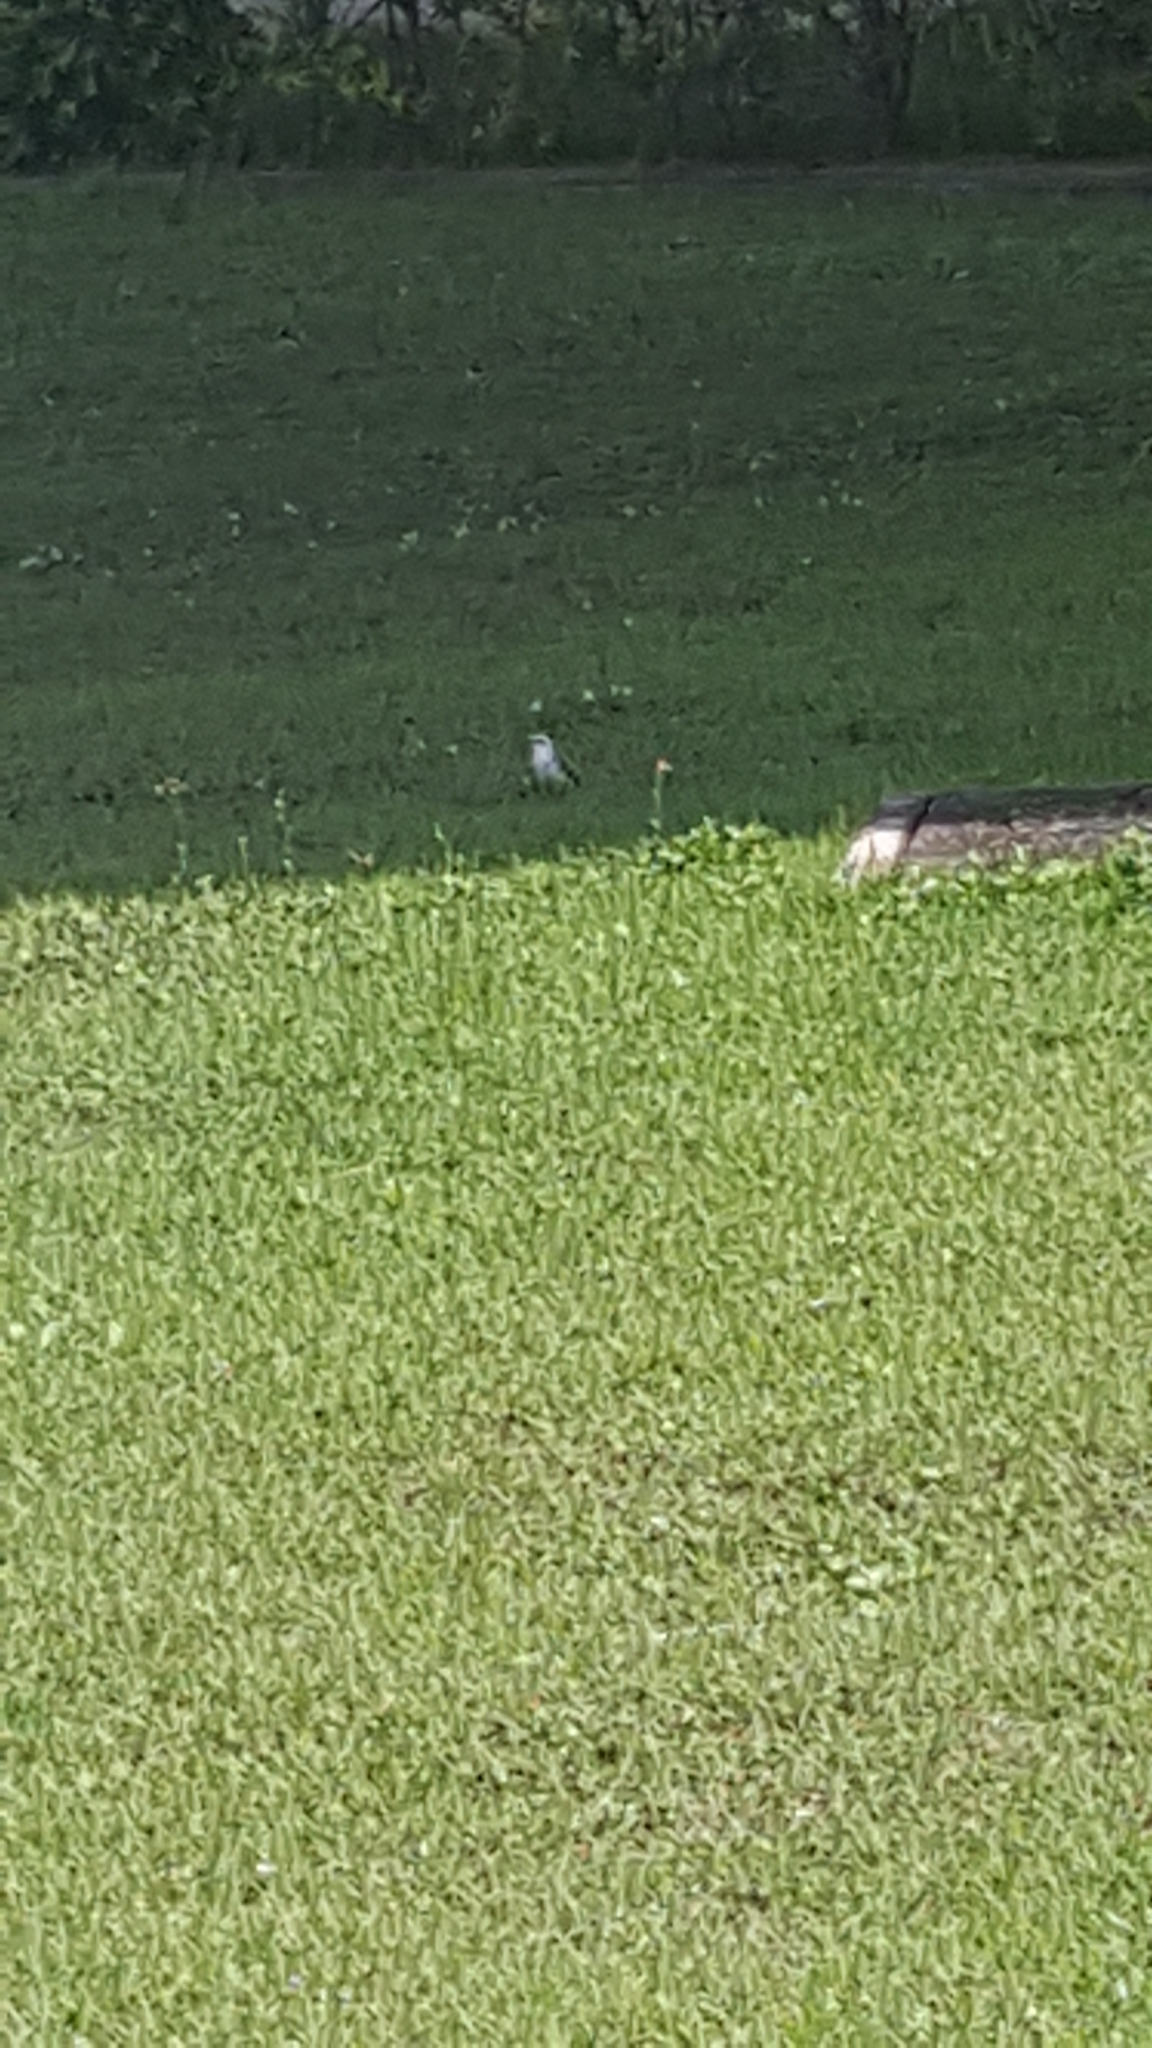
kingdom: Animalia
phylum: Chordata
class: Aves
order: Passeriformes
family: Tyrannidae
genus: Fluvicola
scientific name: Fluvicola nengeta
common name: Masked water tyrant
